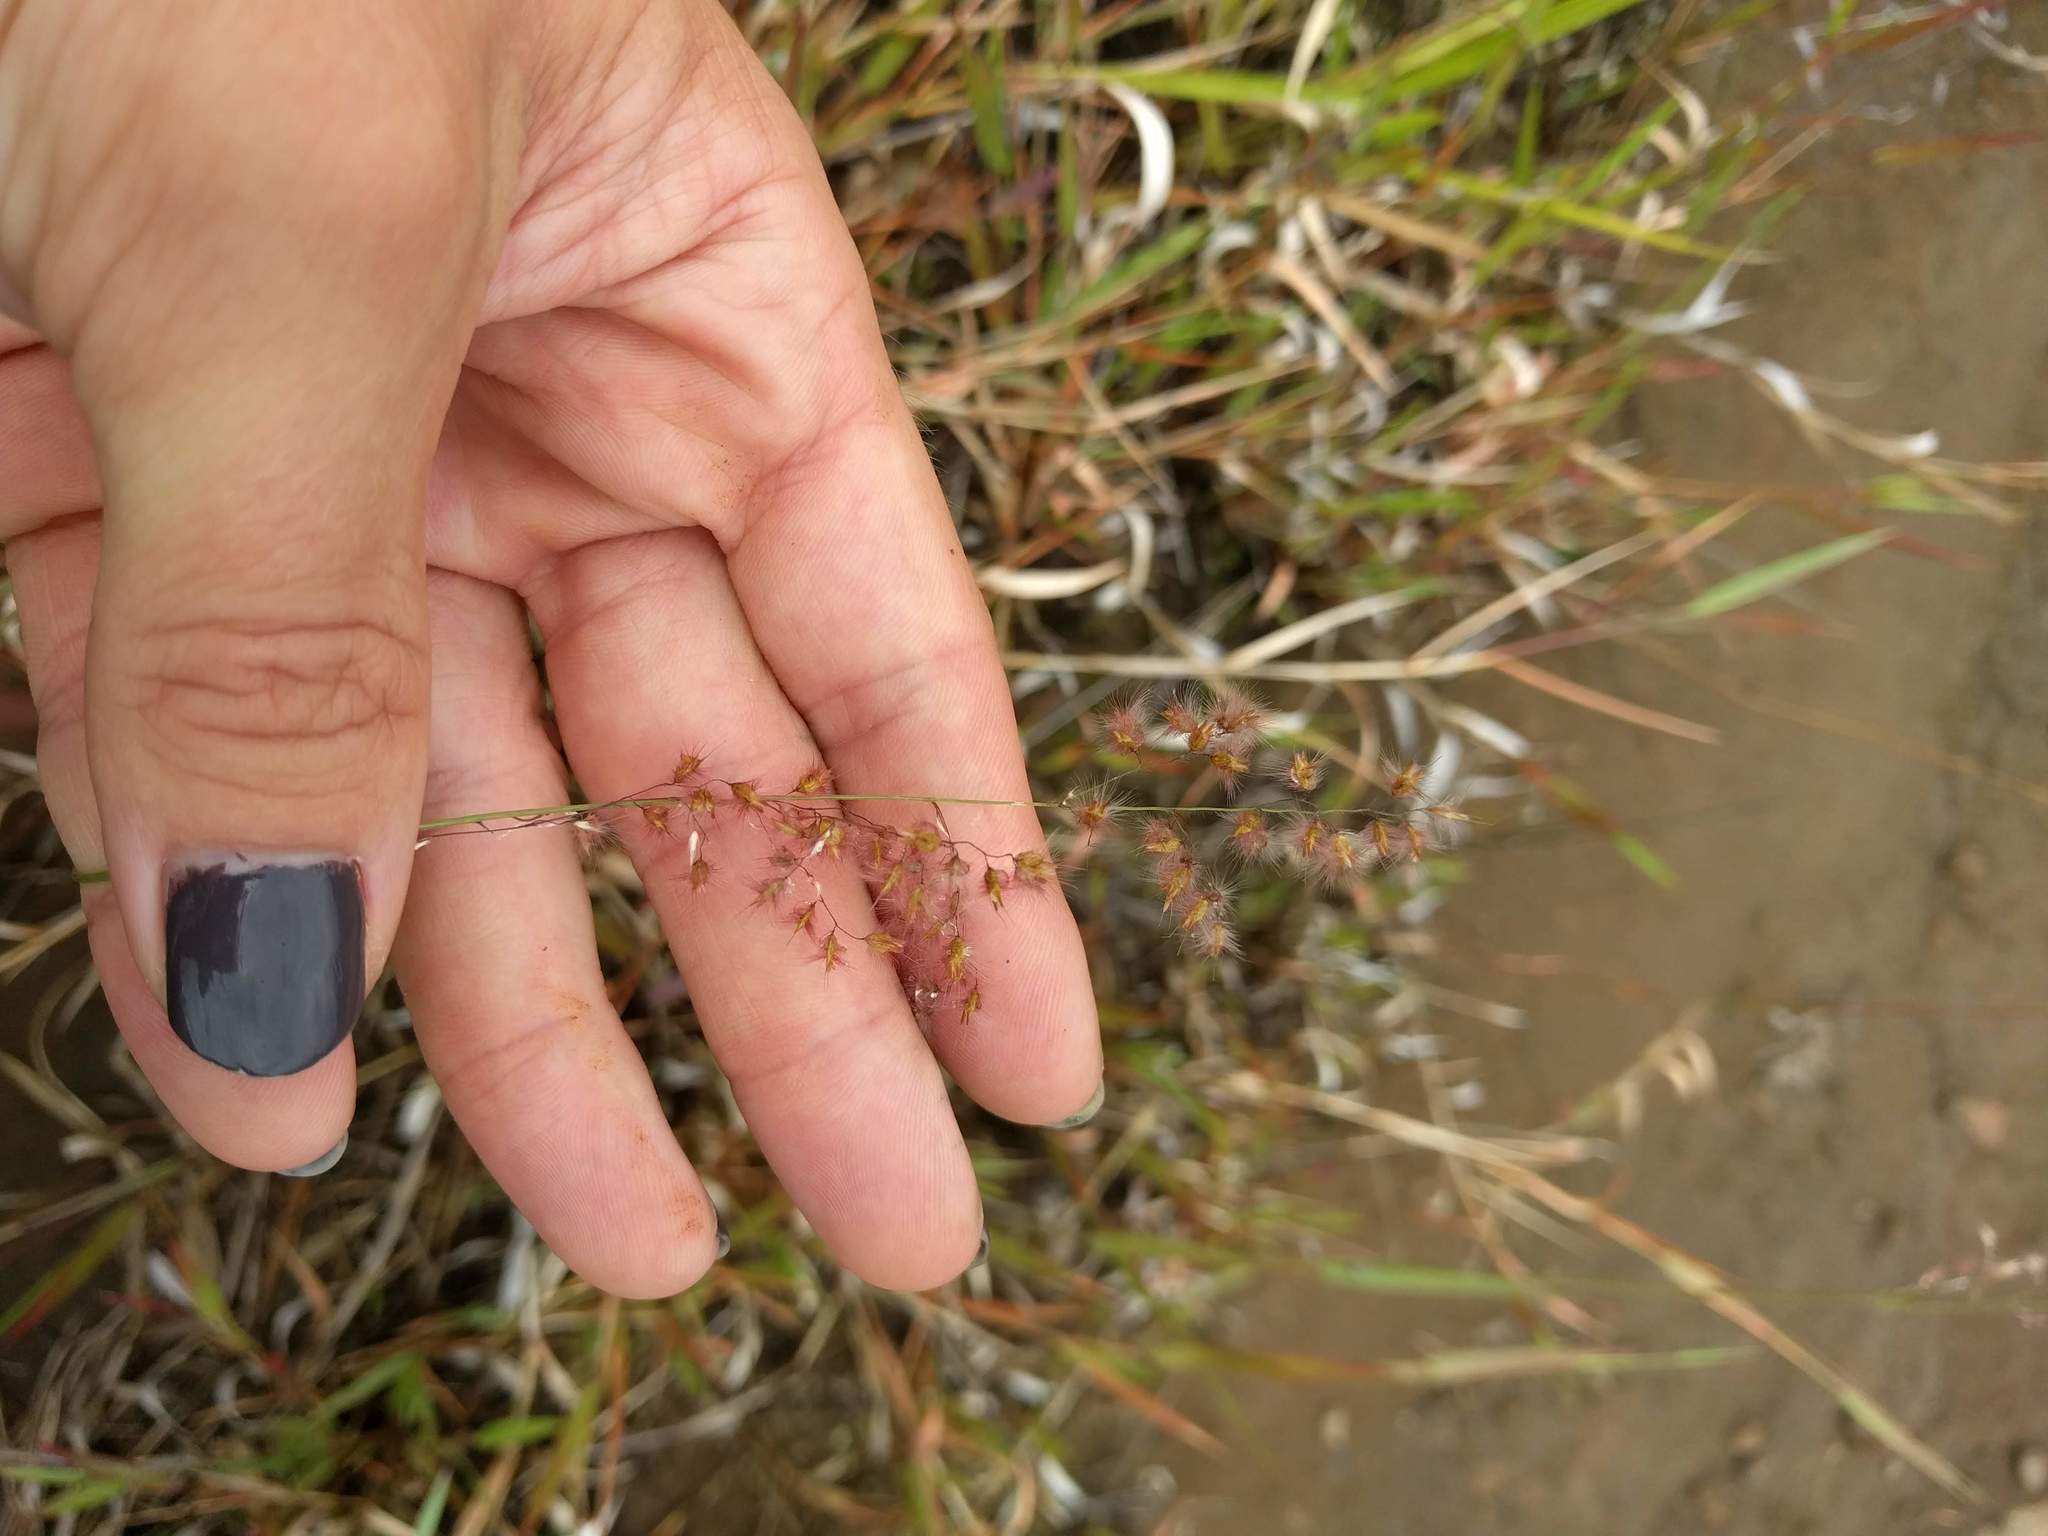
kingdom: Plantae
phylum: Tracheophyta
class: Liliopsida
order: Poales
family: Poaceae
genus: Melinis
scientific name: Melinis repens
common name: Rose natal grass
